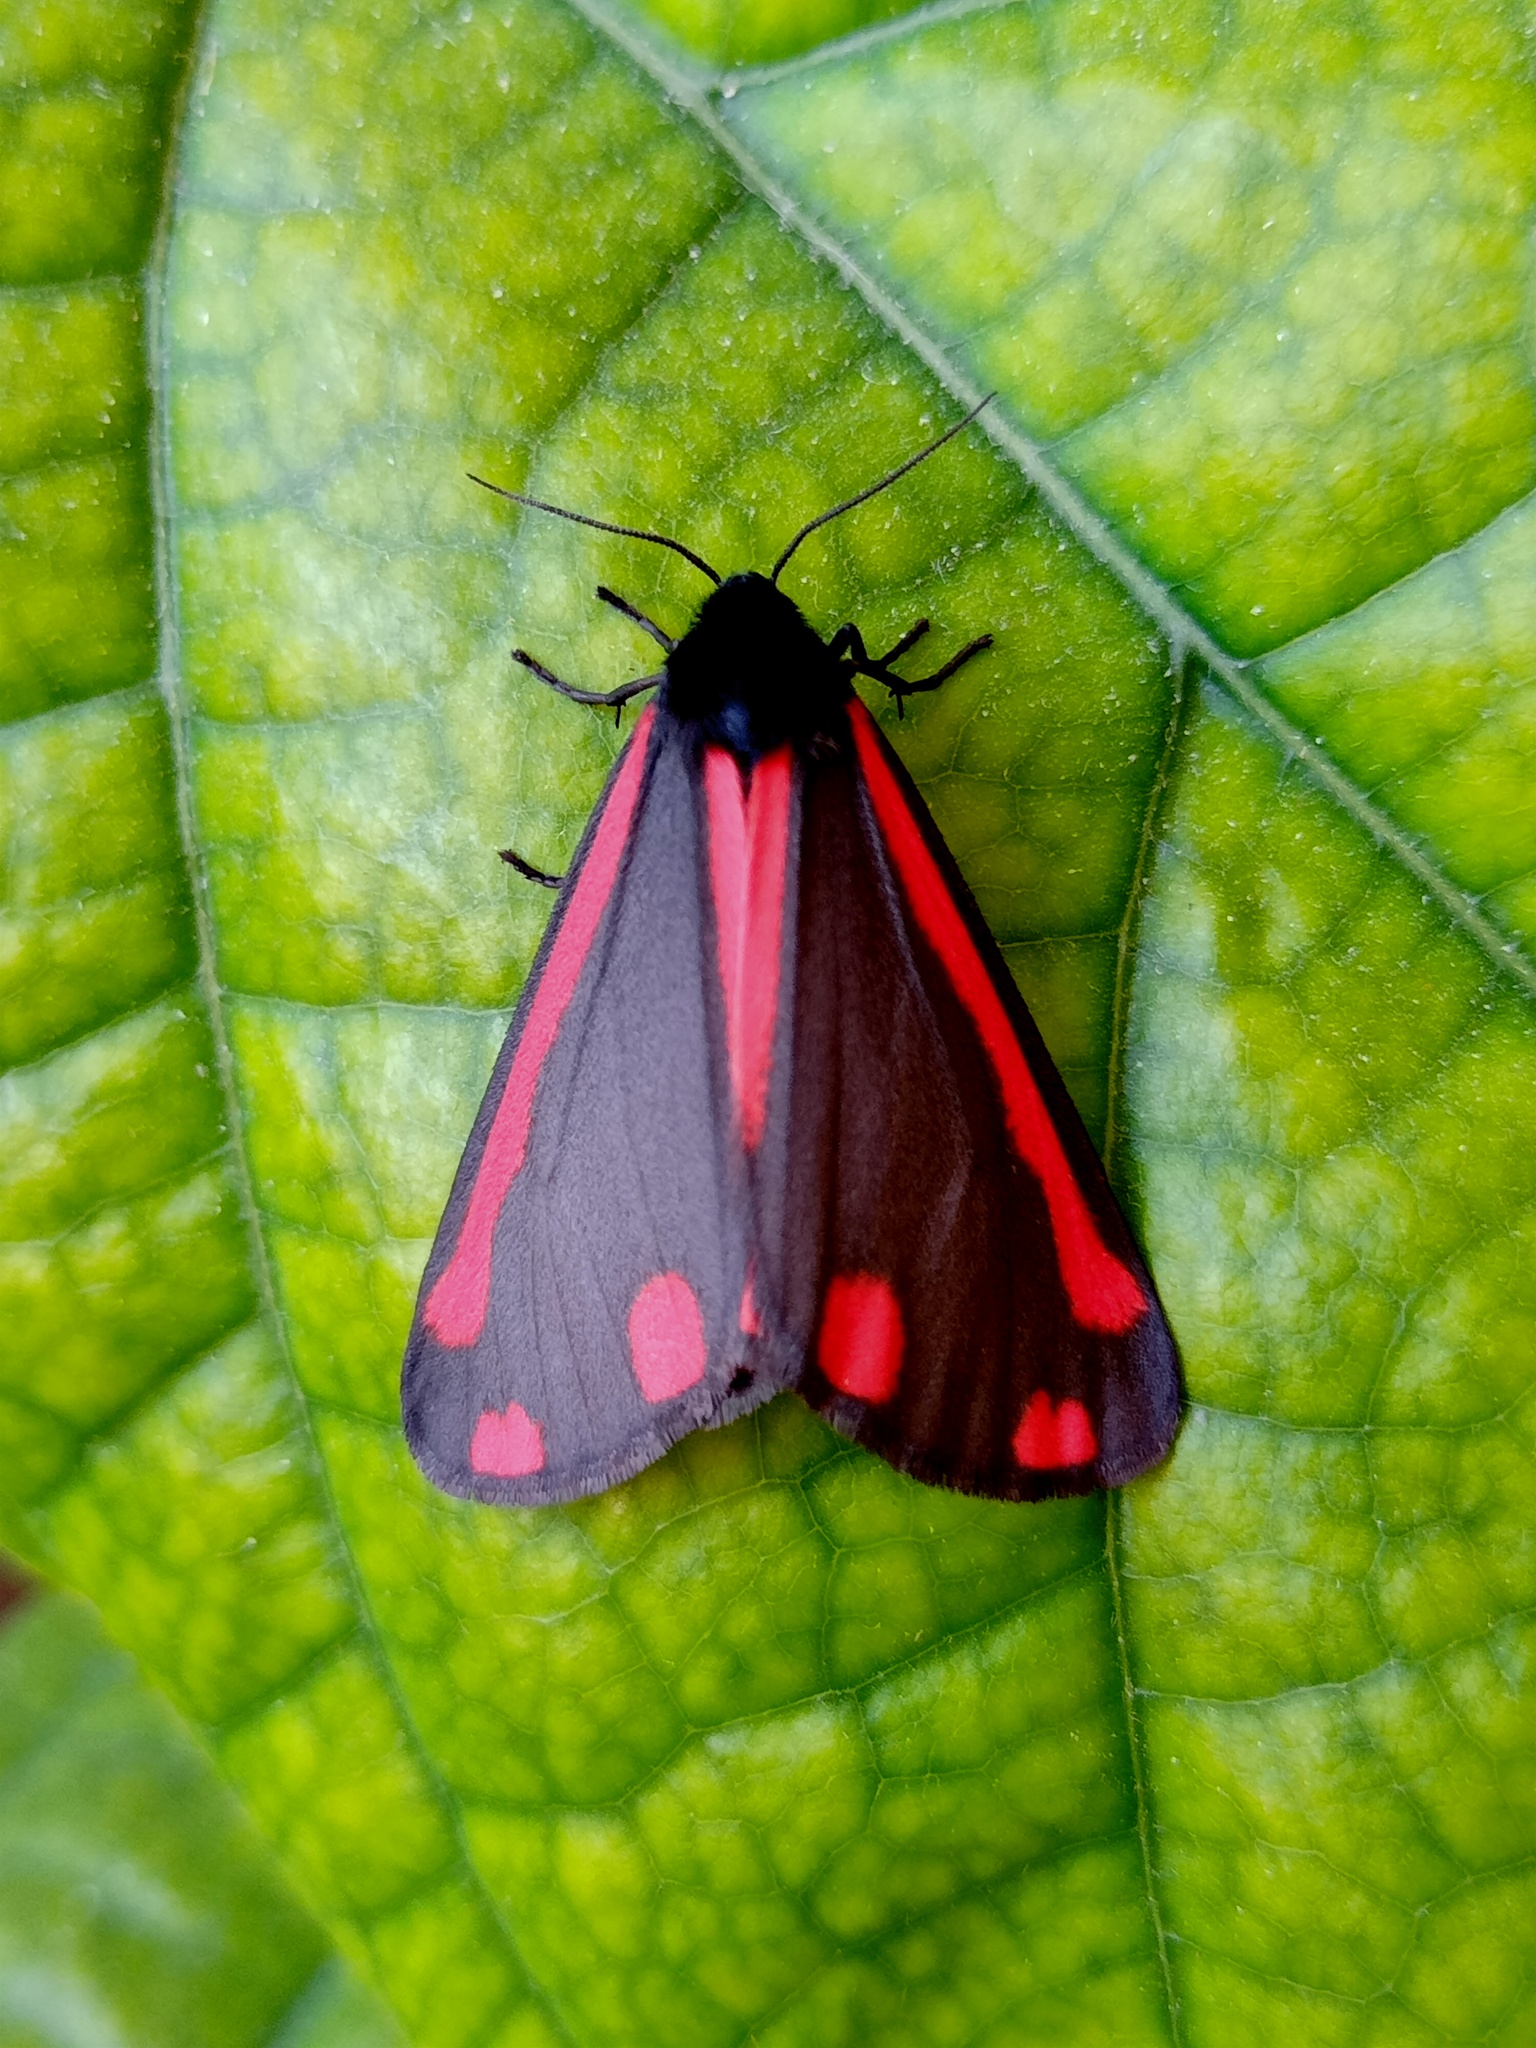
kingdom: Animalia
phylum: Arthropoda
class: Insecta
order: Lepidoptera
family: Erebidae
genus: Tyria
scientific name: Tyria jacobaeae
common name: Cinnabar
